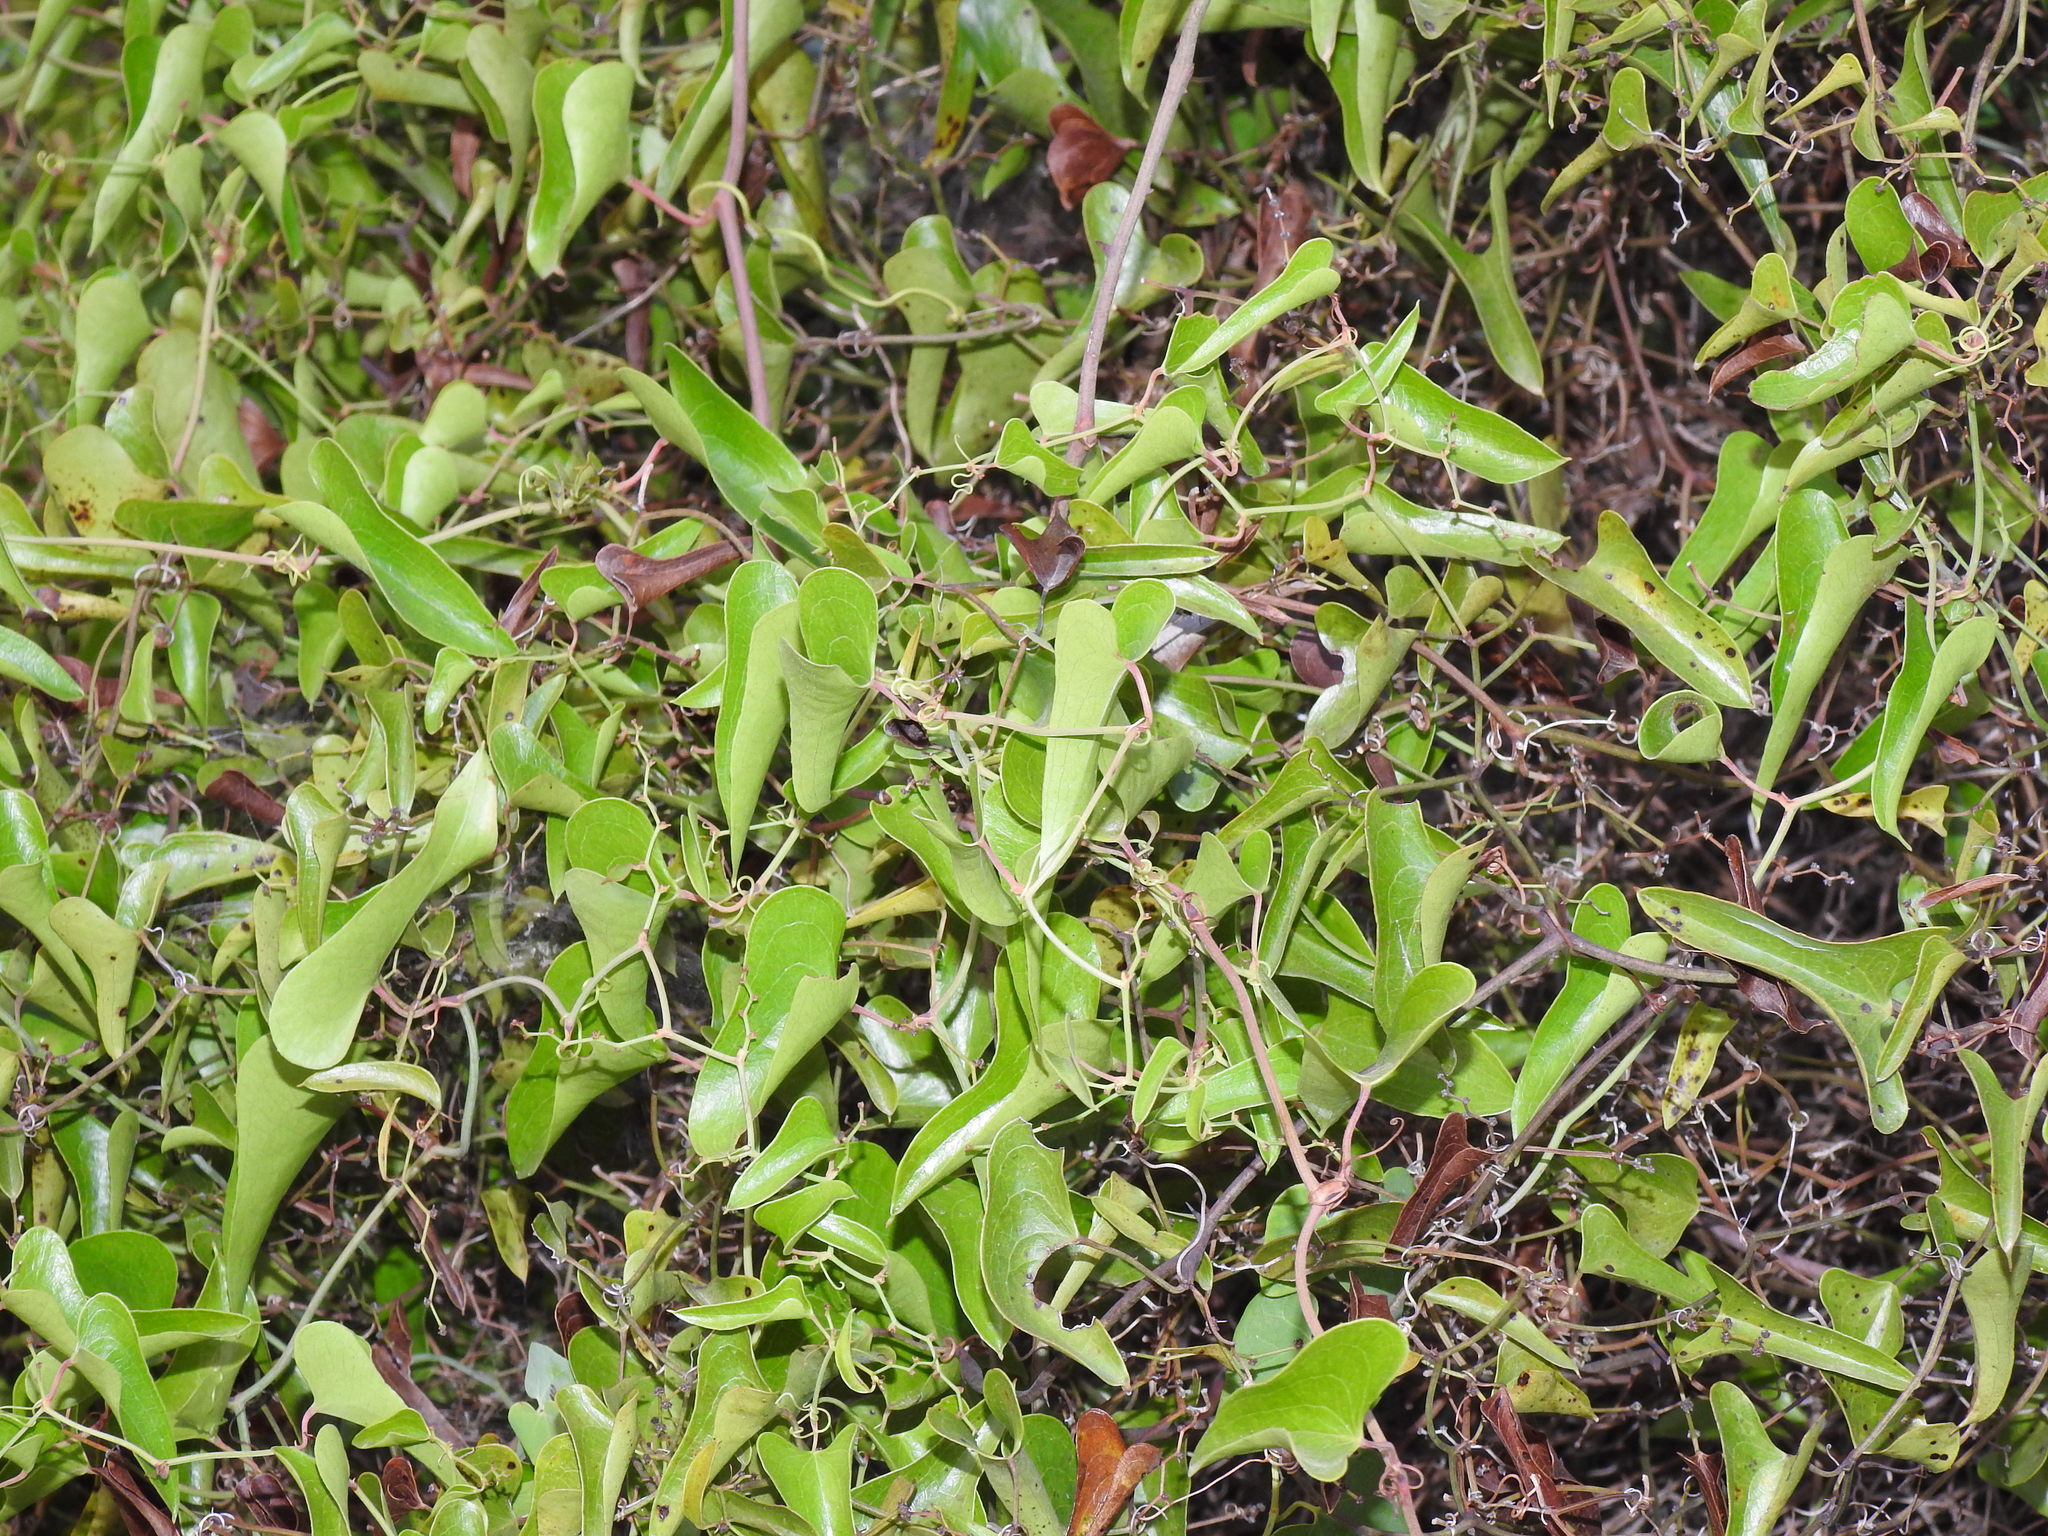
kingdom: Plantae
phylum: Tracheophyta
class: Liliopsida
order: Liliales
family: Smilacaceae
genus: Smilax
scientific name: Smilax aspera
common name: Common smilax
